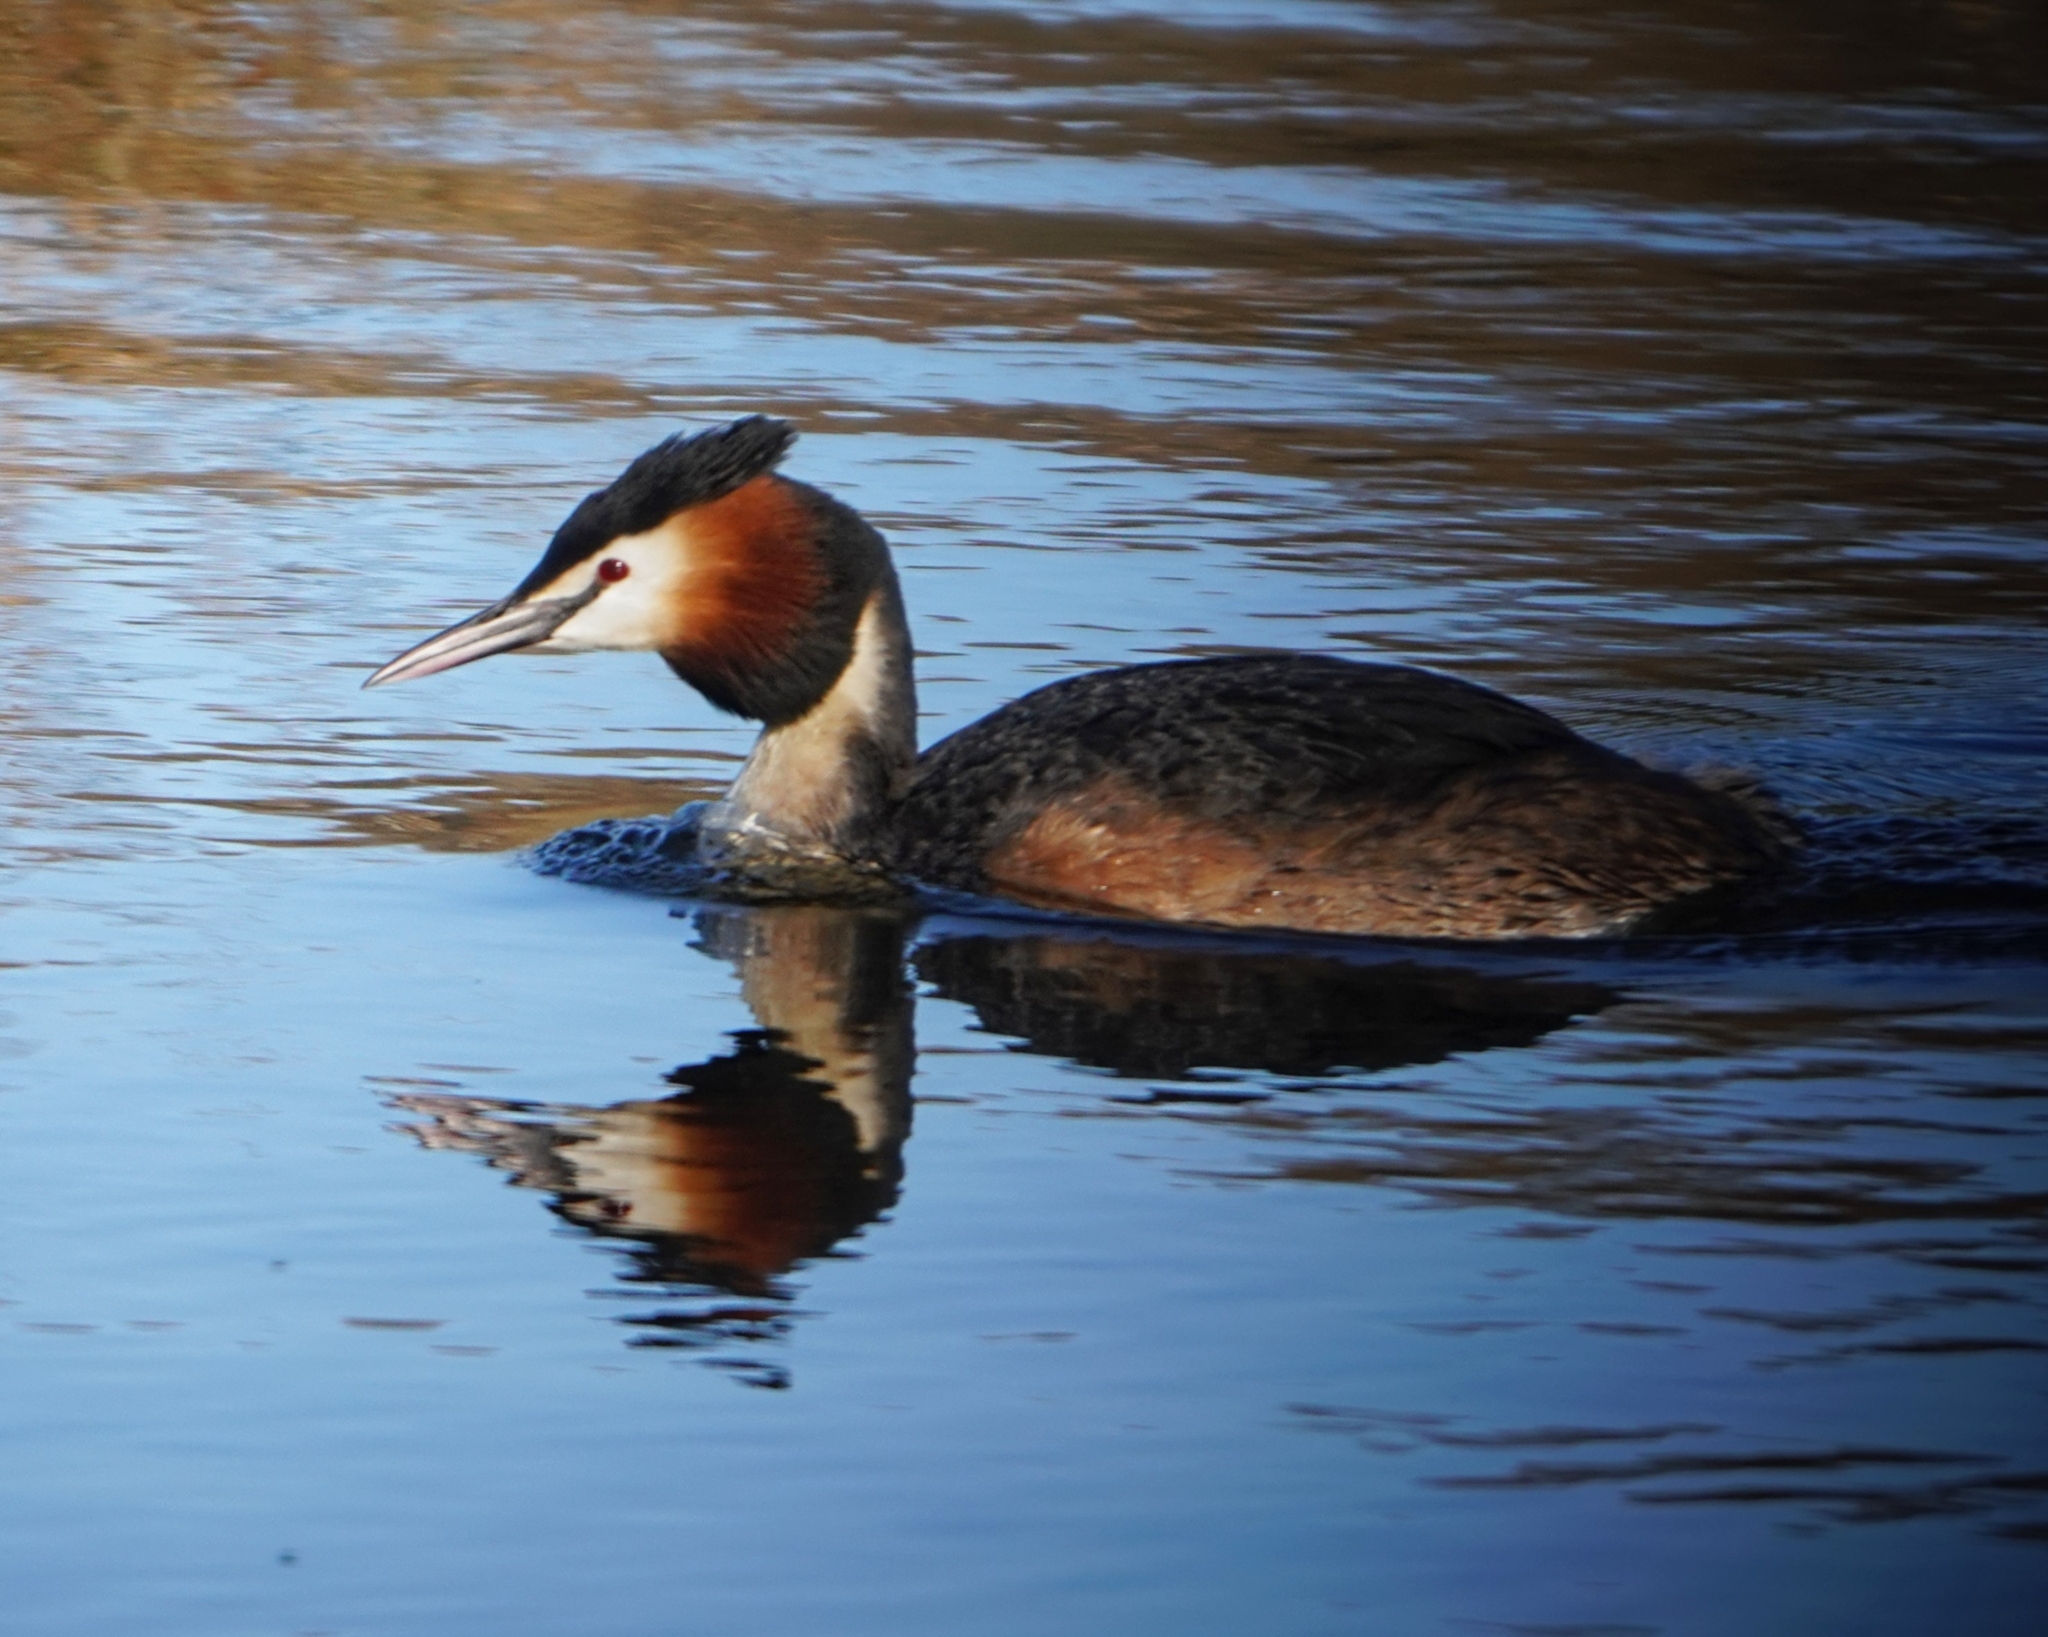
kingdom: Animalia
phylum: Chordata
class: Aves
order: Podicipediformes
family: Podicipedidae
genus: Podiceps
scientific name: Podiceps cristatus
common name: Great crested grebe
